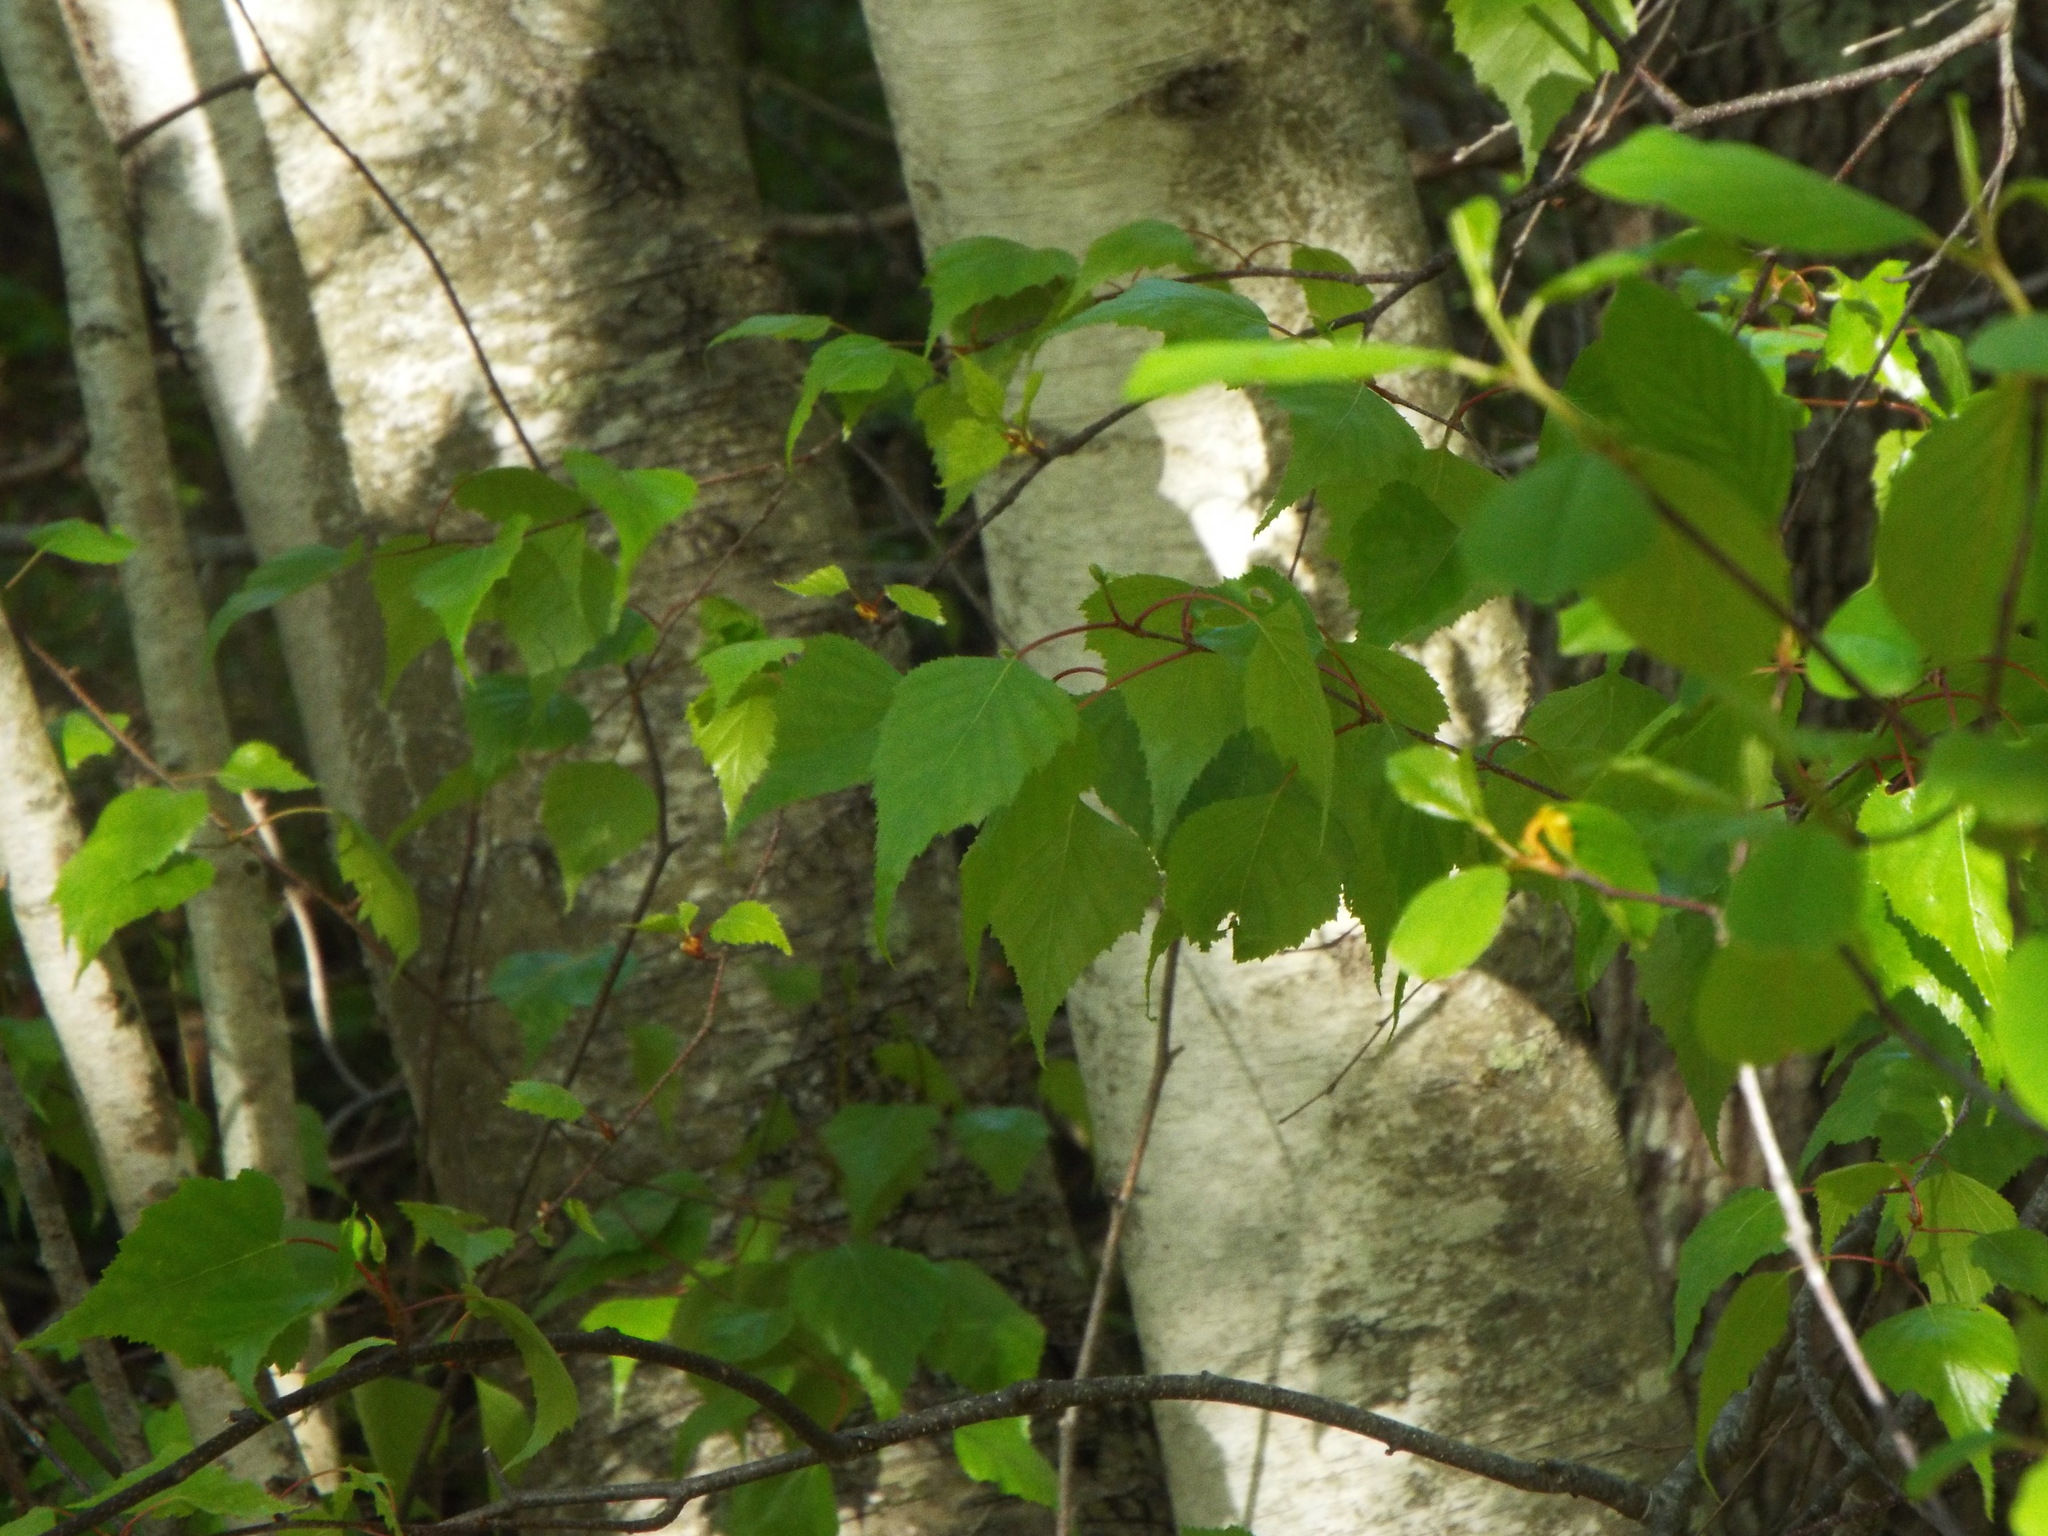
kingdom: Plantae
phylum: Tracheophyta
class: Magnoliopsida
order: Fagales
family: Betulaceae
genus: Betula
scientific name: Betula populifolia
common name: Fire birch
